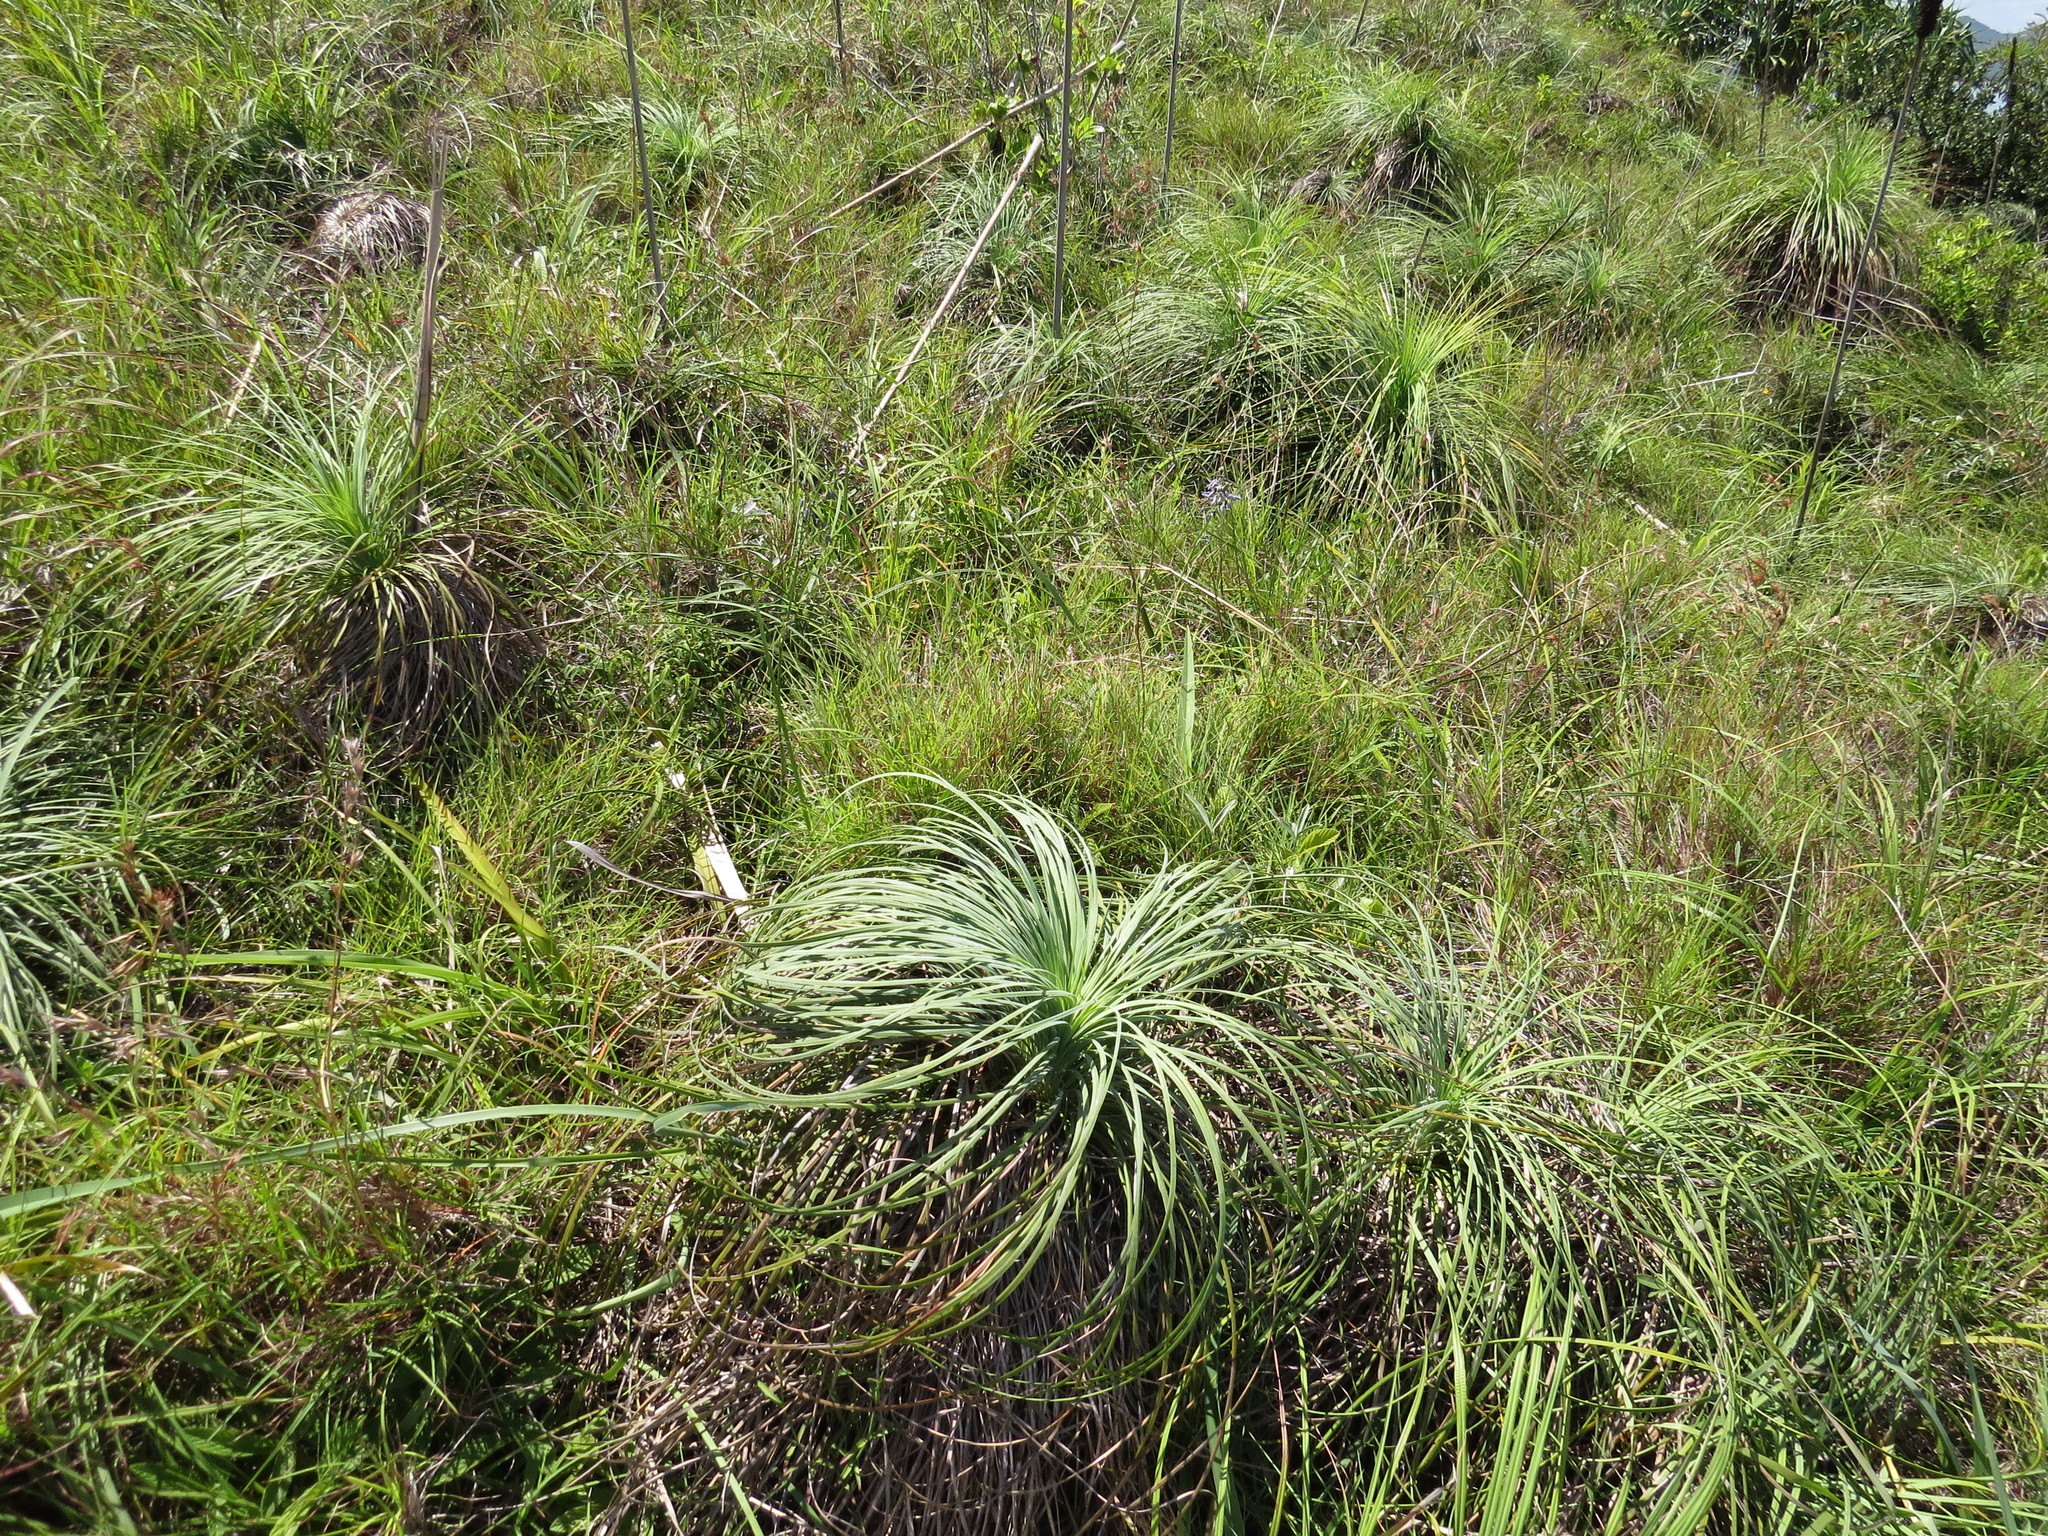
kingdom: Plantae
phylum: Tracheophyta
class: Liliopsida
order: Asparagales
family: Asphodelaceae
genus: Xanthorrhoea
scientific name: Xanthorrhoea pumilio
